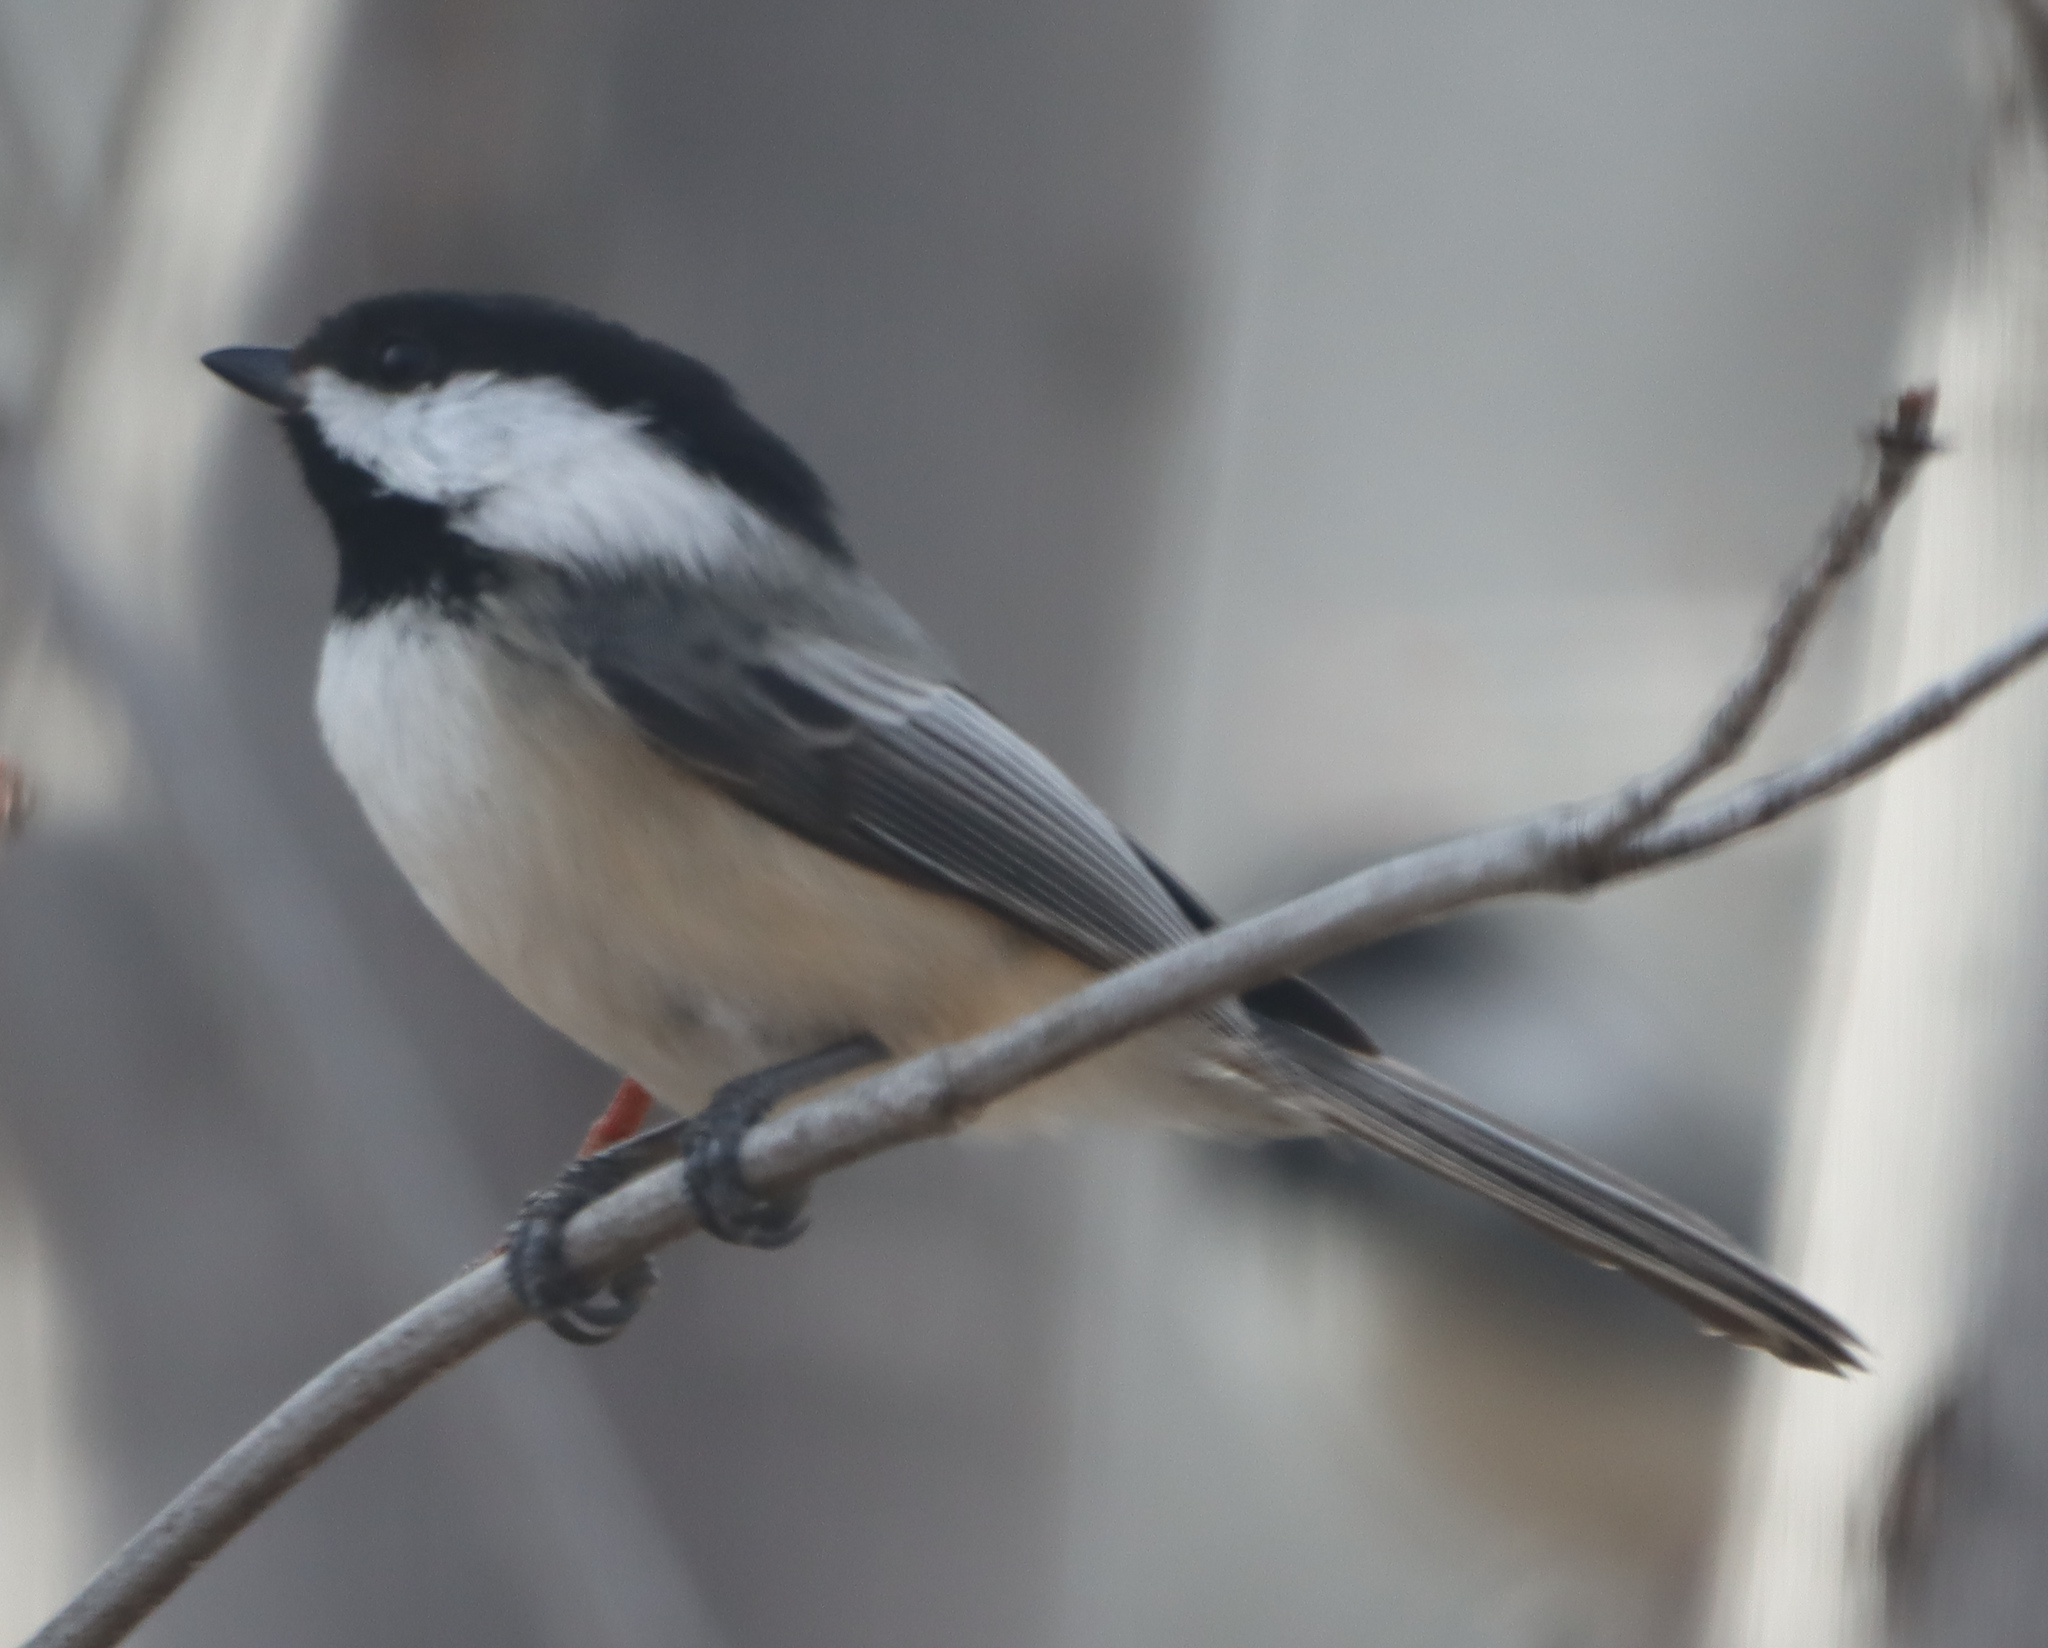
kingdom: Animalia
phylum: Chordata
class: Aves
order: Passeriformes
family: Paridae
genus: Poecile
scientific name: Poecile atricapillus
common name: Black-capped chickadee
